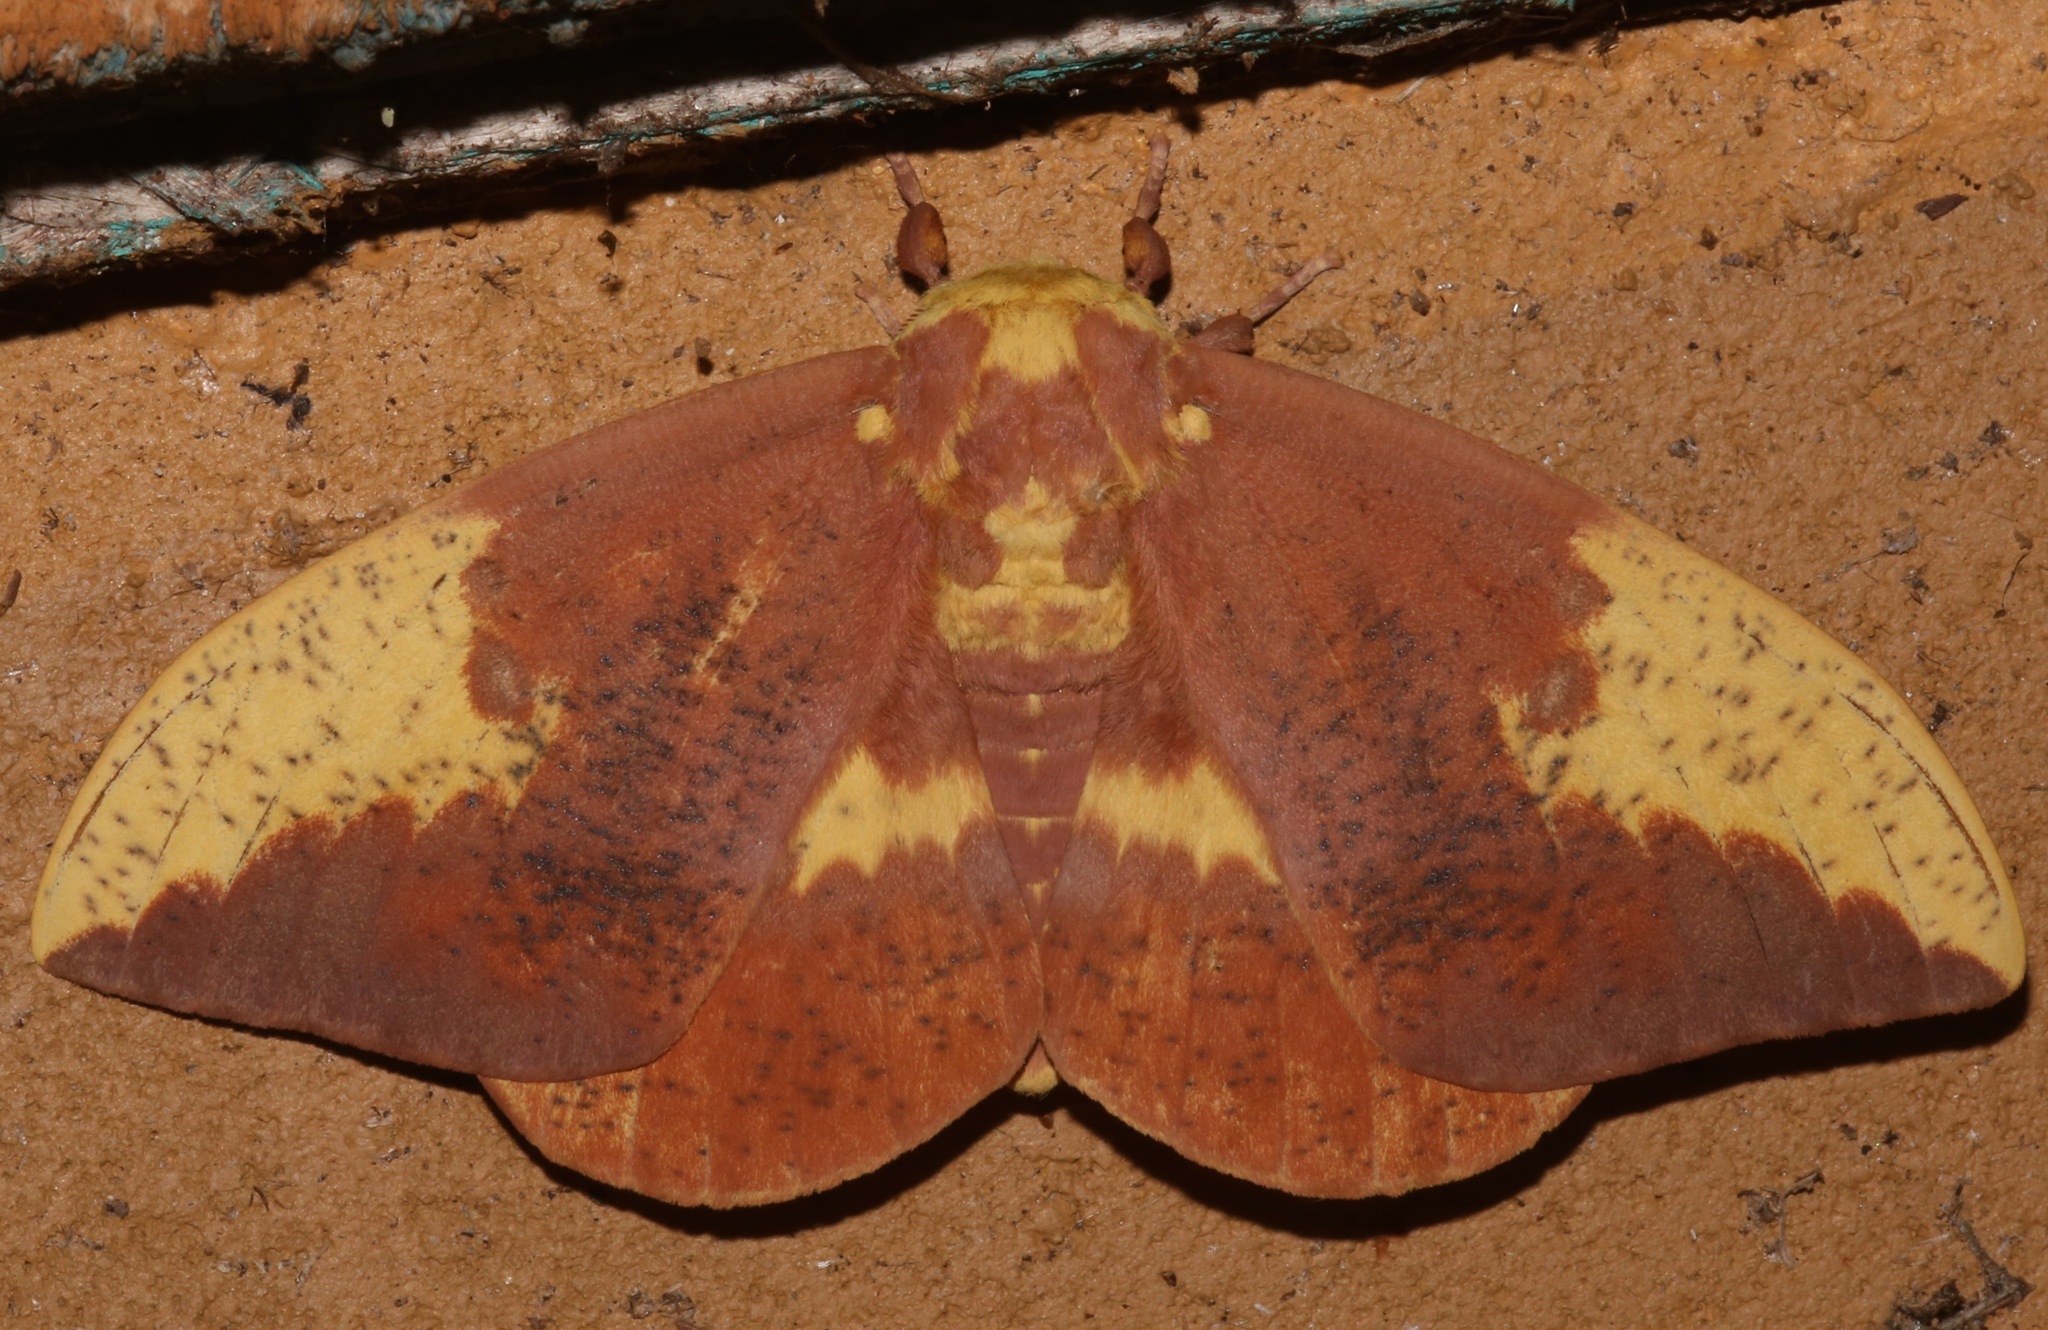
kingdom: Animalia
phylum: Arthropoda
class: Insecta
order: Lepidoptera
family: Saturniidae
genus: Eacles
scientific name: Eacles imperialis
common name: Imperial moth
